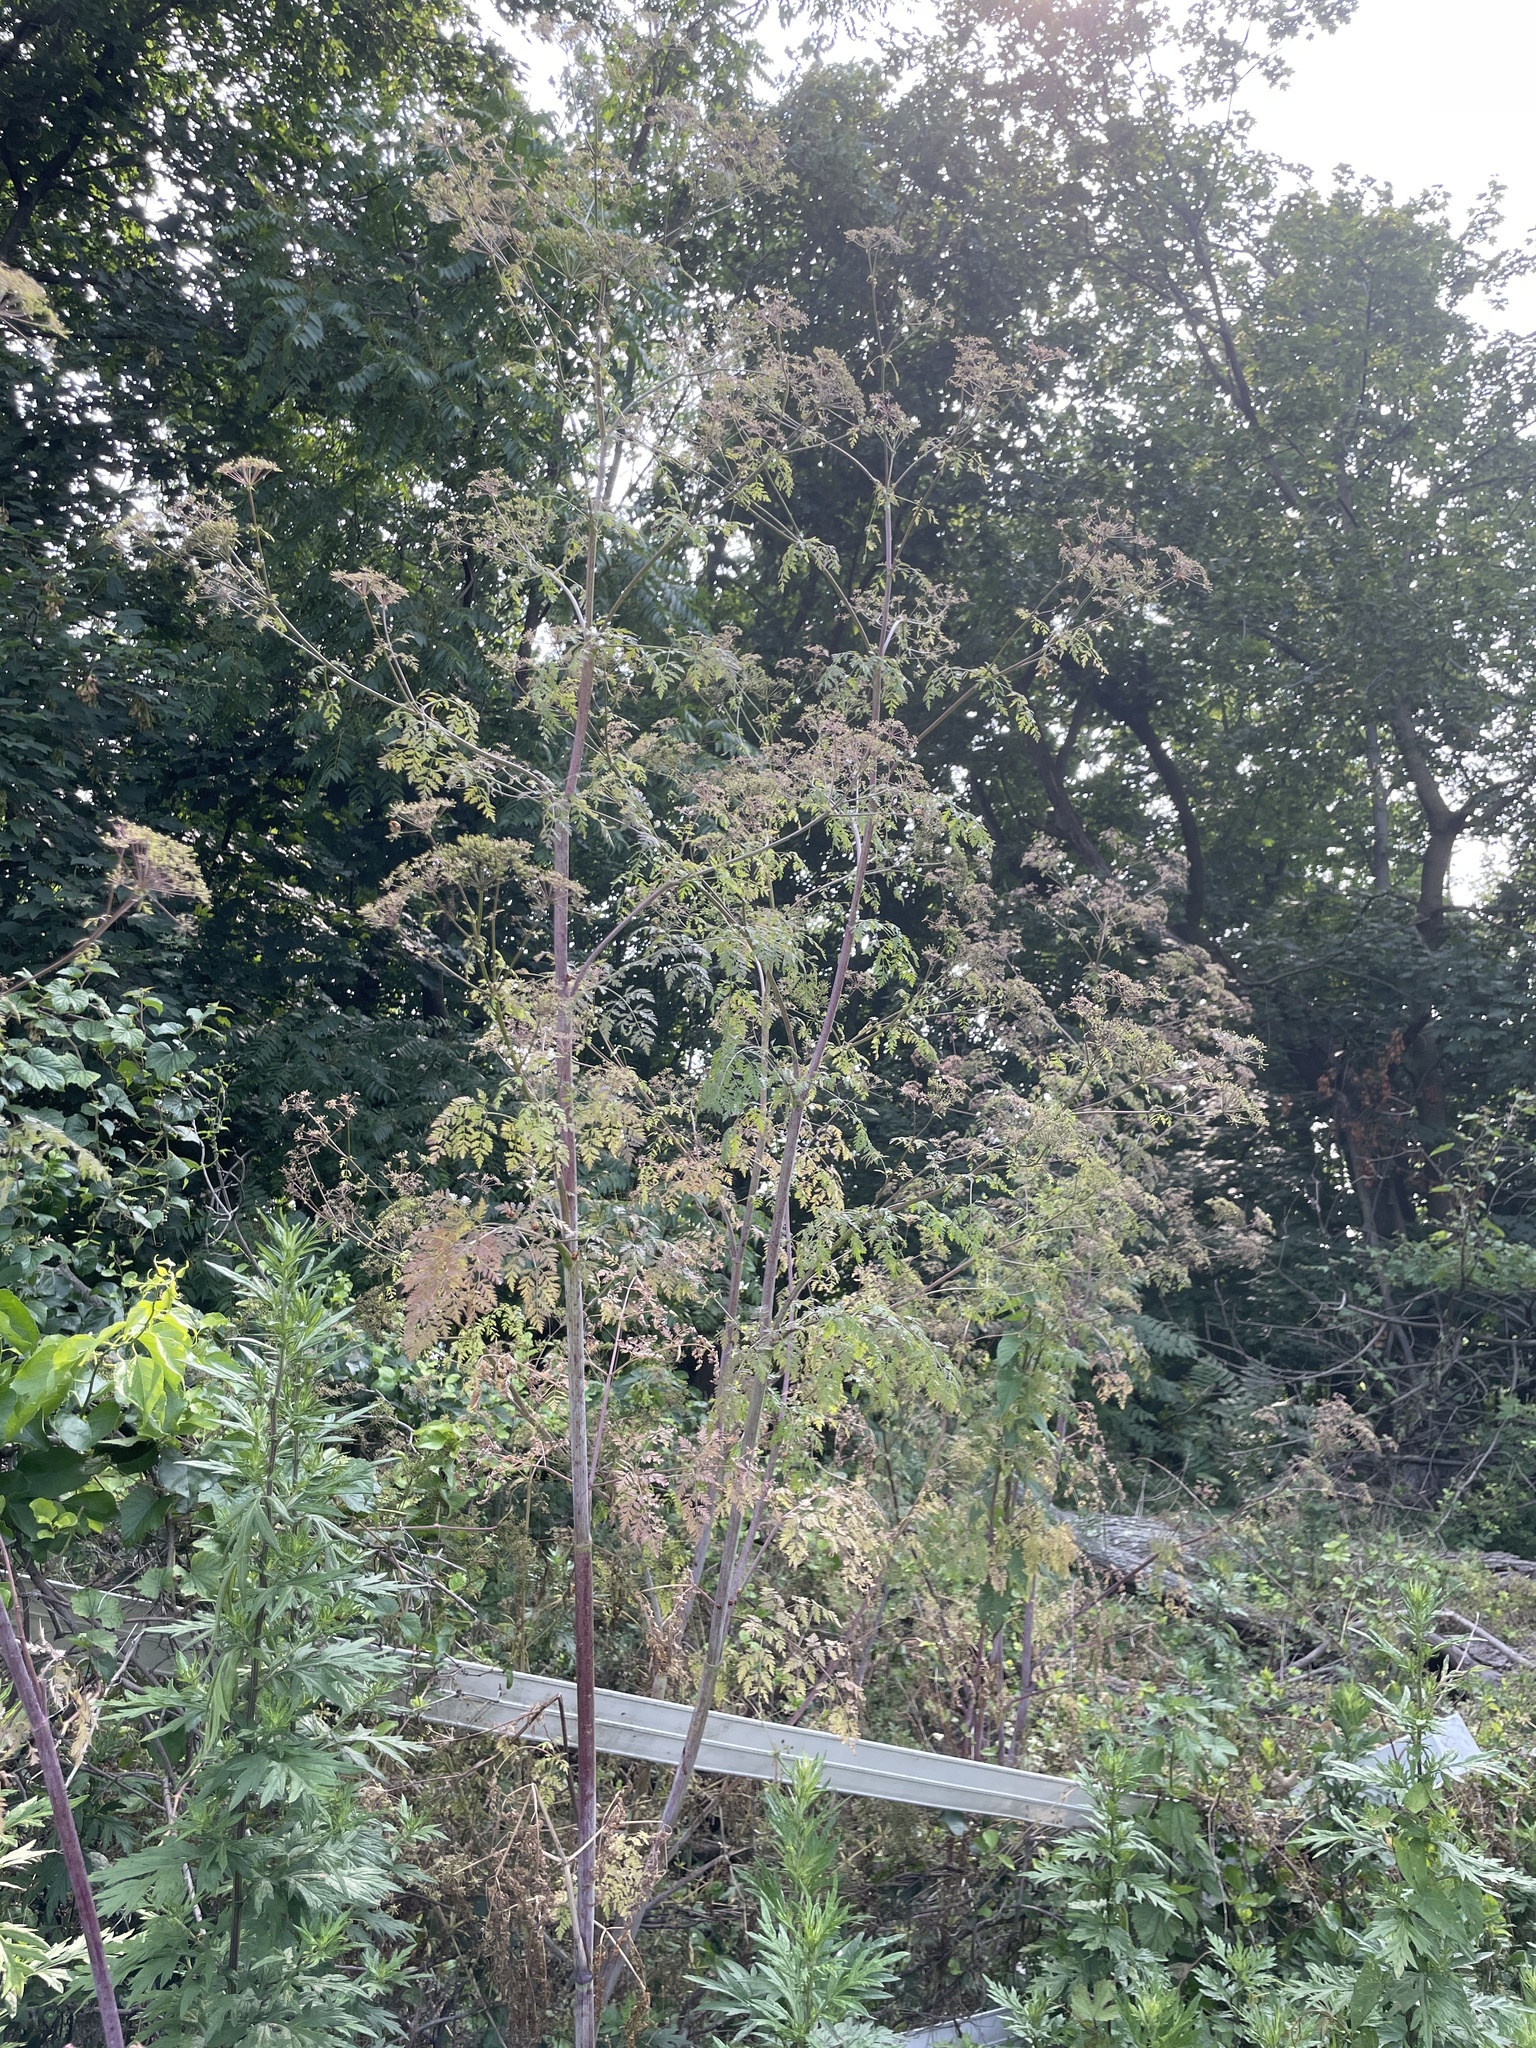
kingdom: Plantae
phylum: Tracheophyta
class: Magnoliopsida
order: Apiales
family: Apiaceae
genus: Conium
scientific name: Conium maculatum
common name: Hemlock
